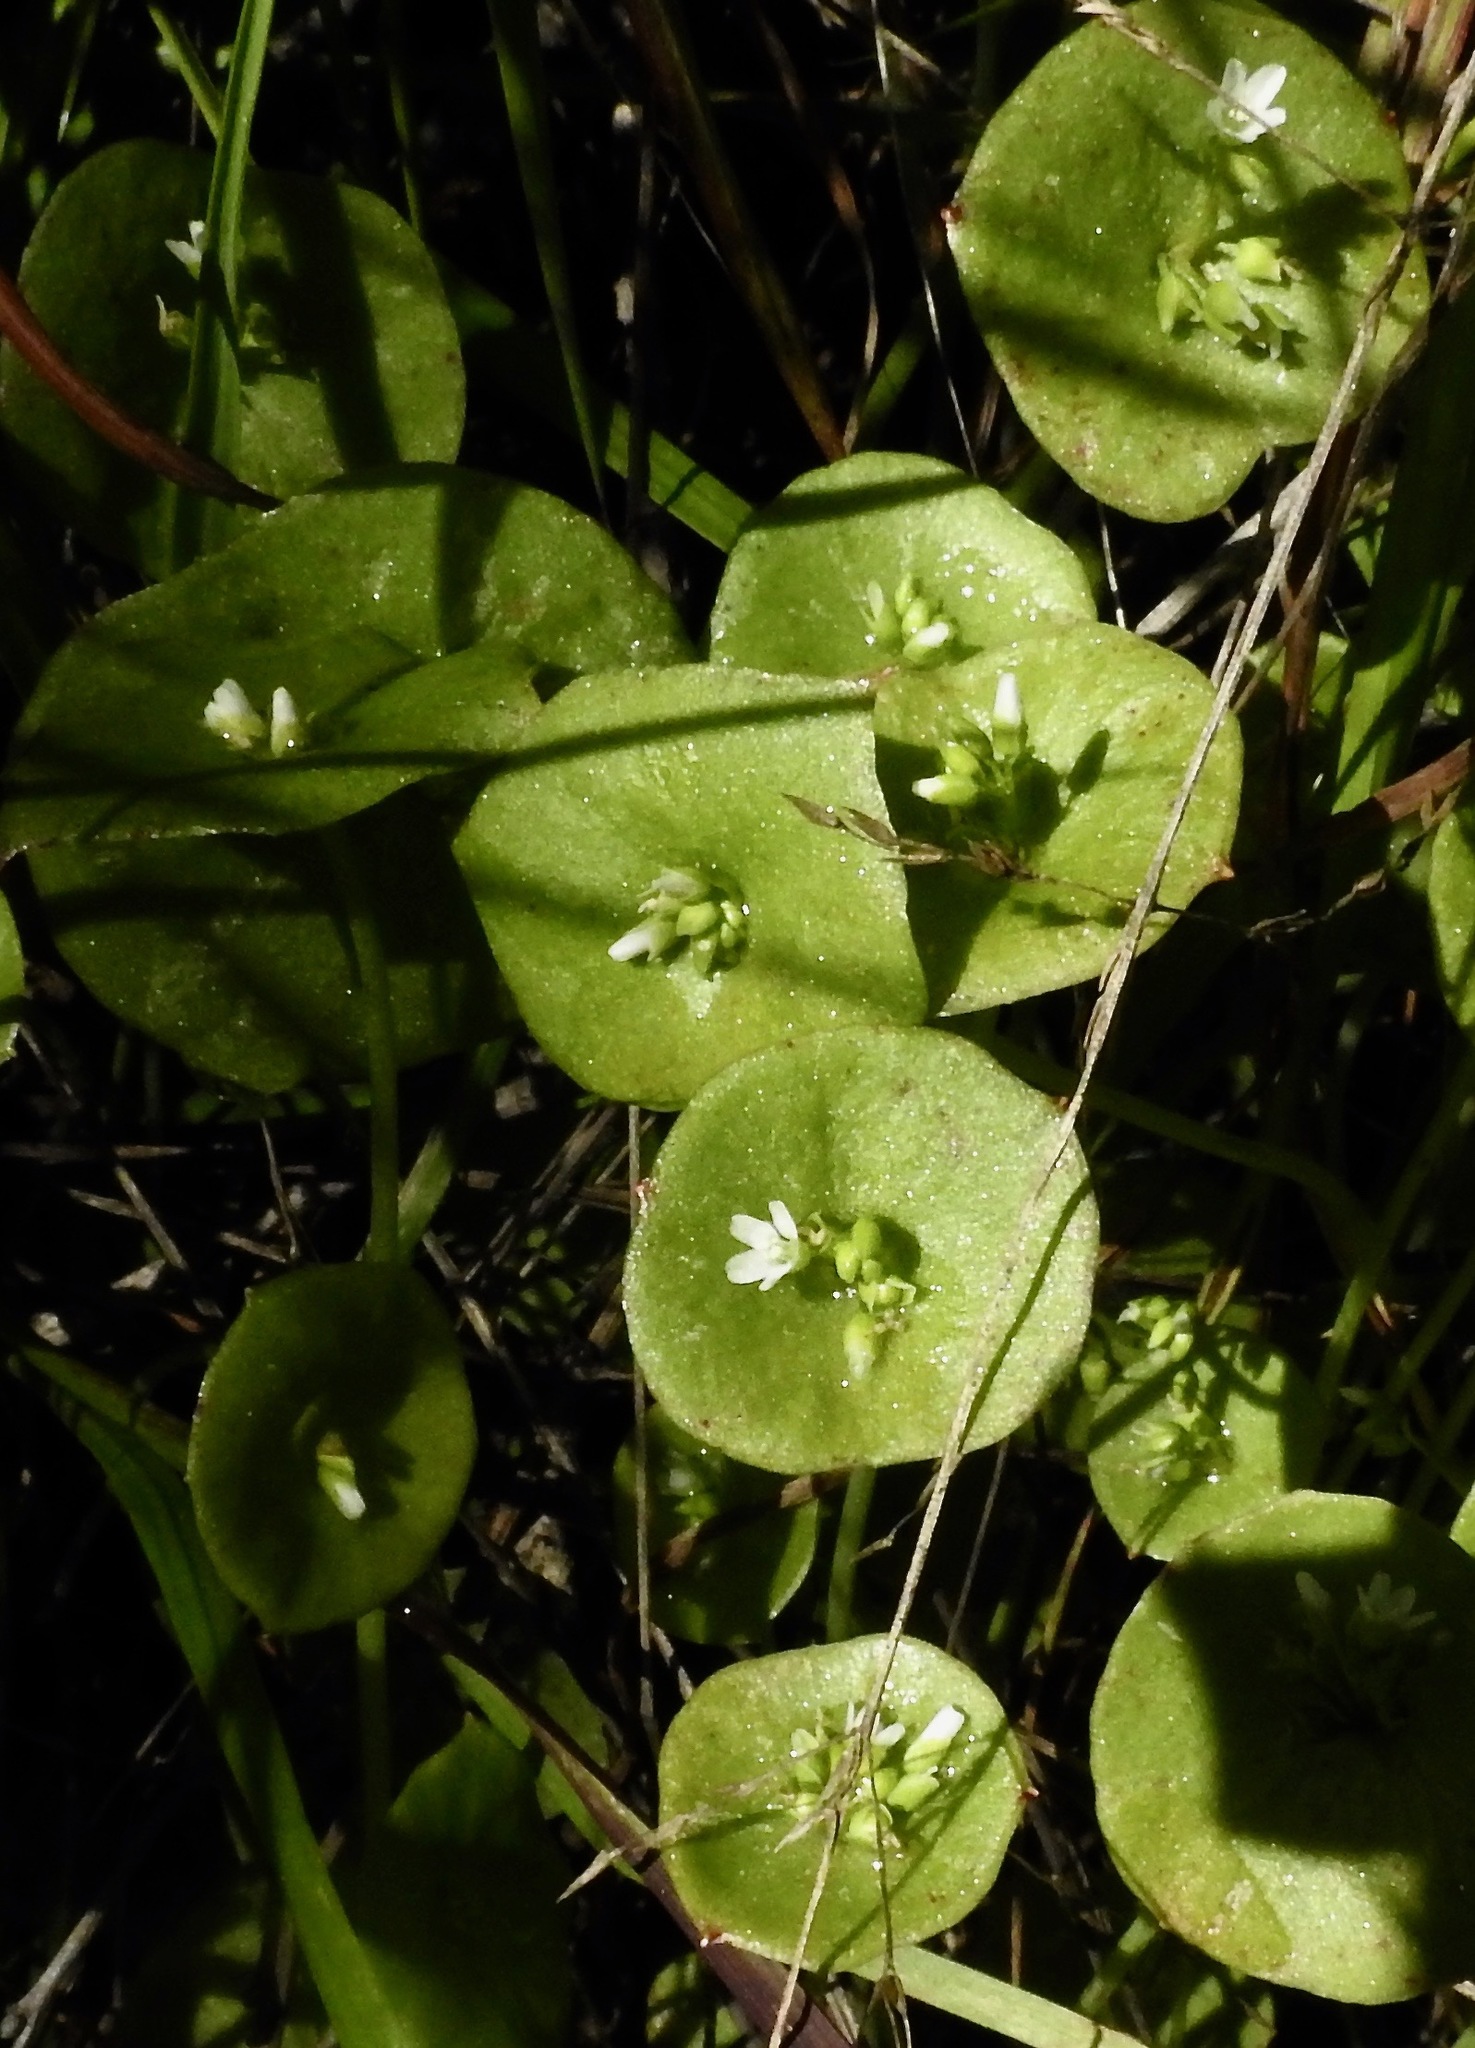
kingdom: Plantae
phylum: Tracheophyta
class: Magnoliopsida
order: Caryophyllales
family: Montiaceae
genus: Claytonia
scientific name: Claytonia perfoliata
